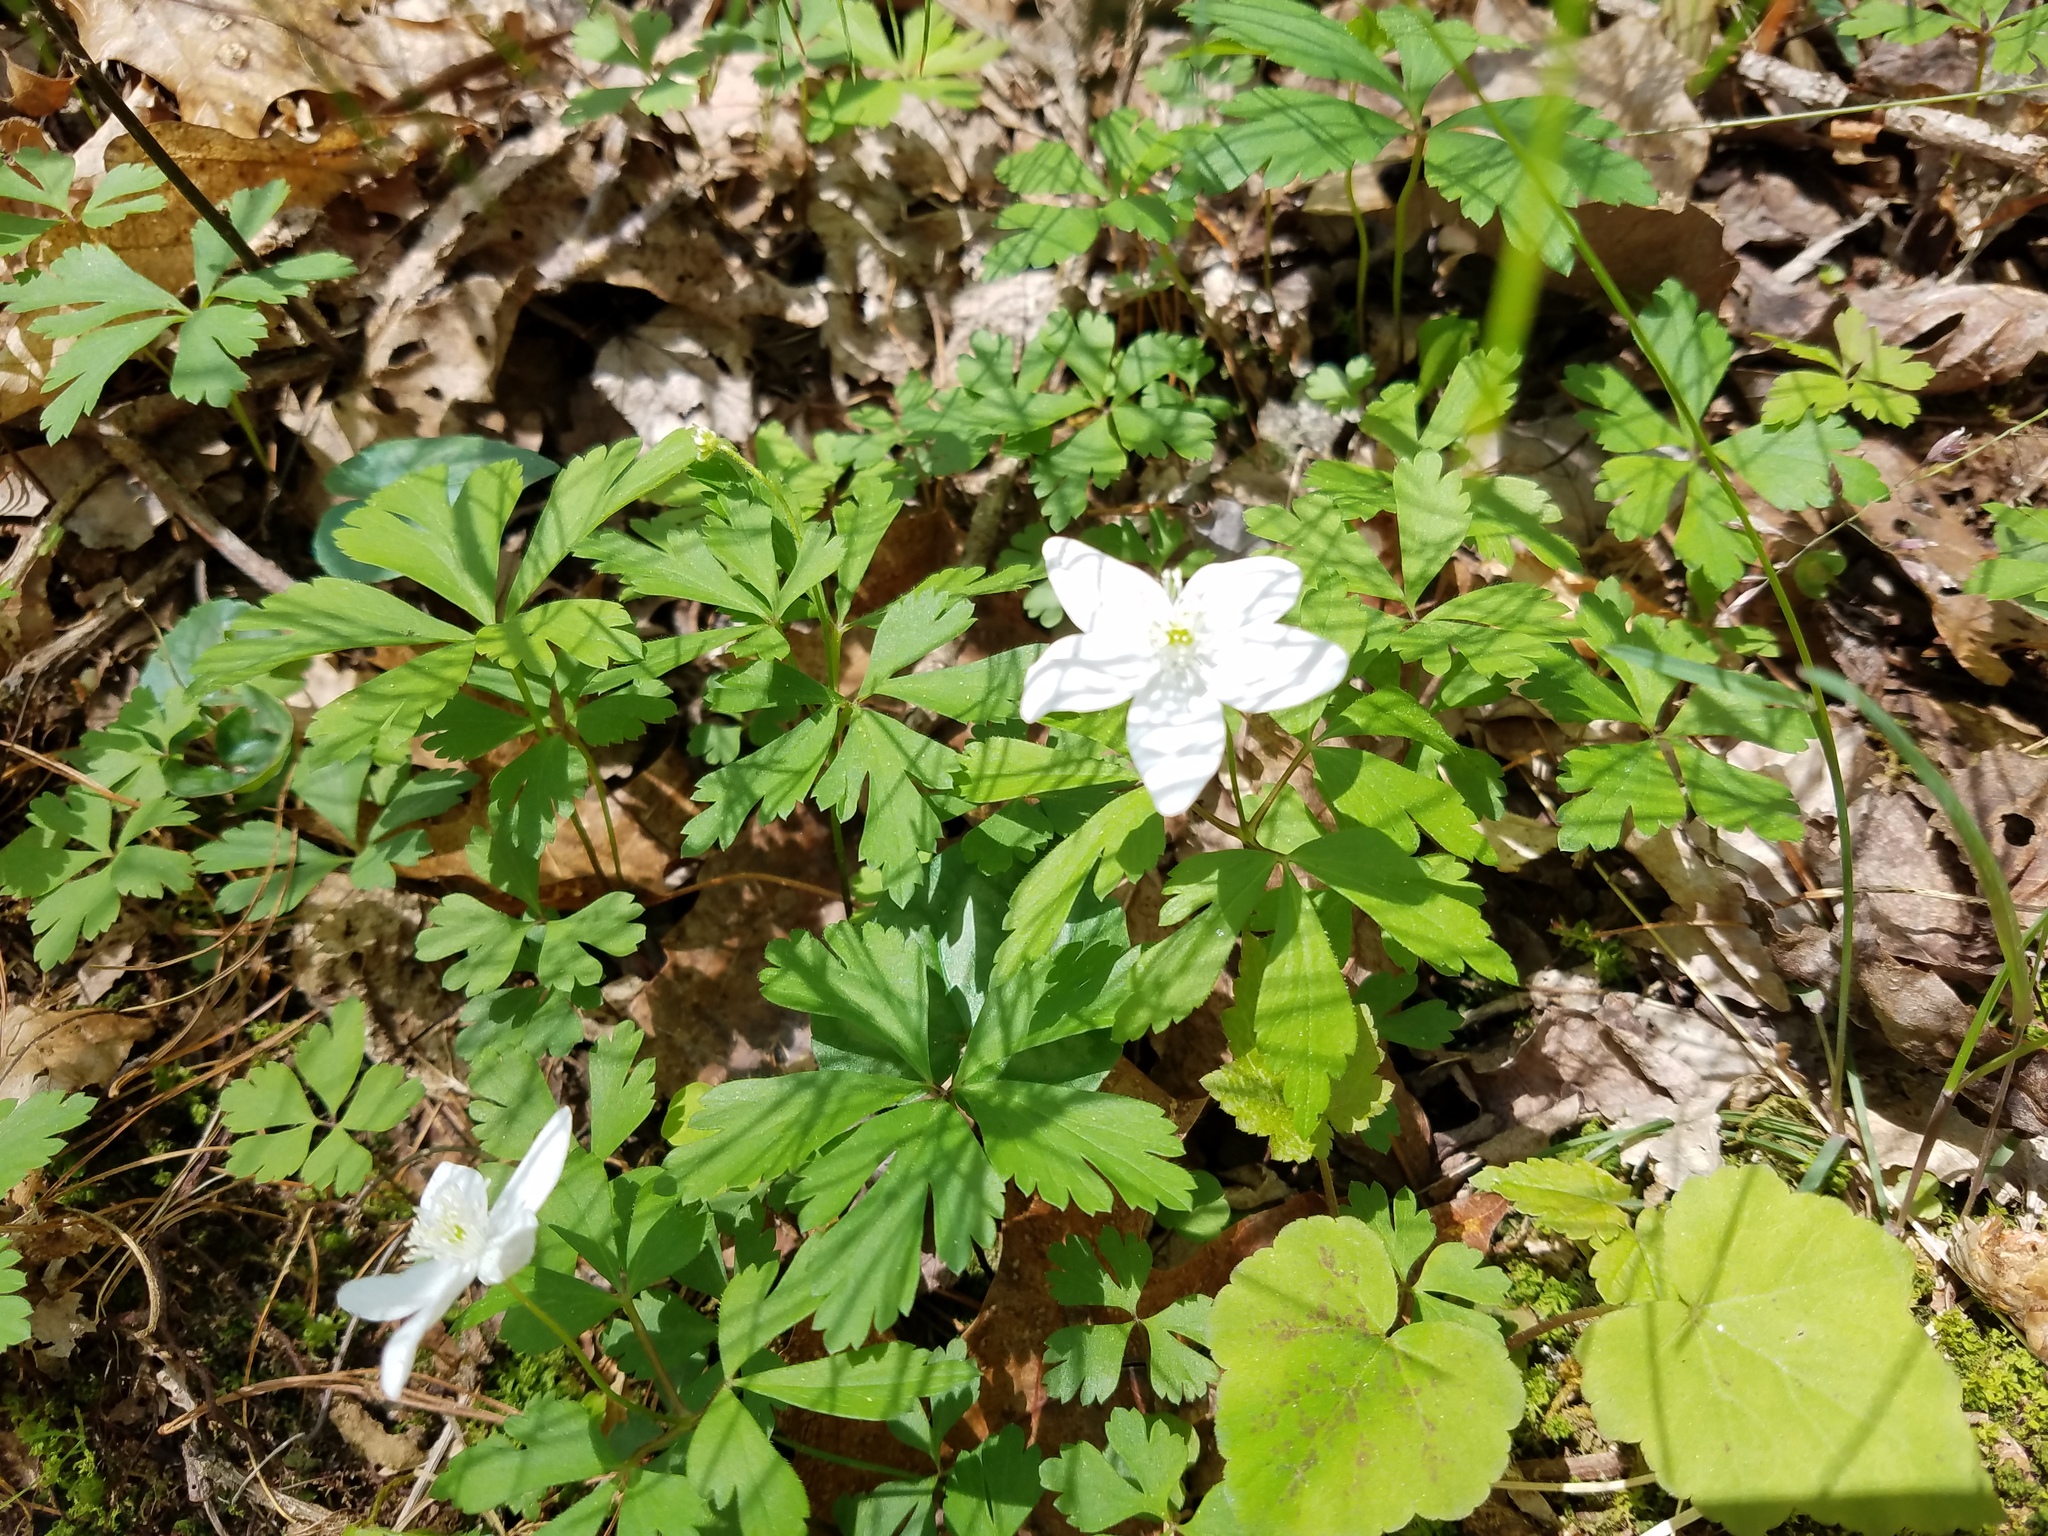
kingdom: Plantae
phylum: Tracheophyta
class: Magnoliopsida
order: Ranunculales
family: Ranunculaceae
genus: Anemone
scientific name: Anemone quinquefolia
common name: Wood anemone
